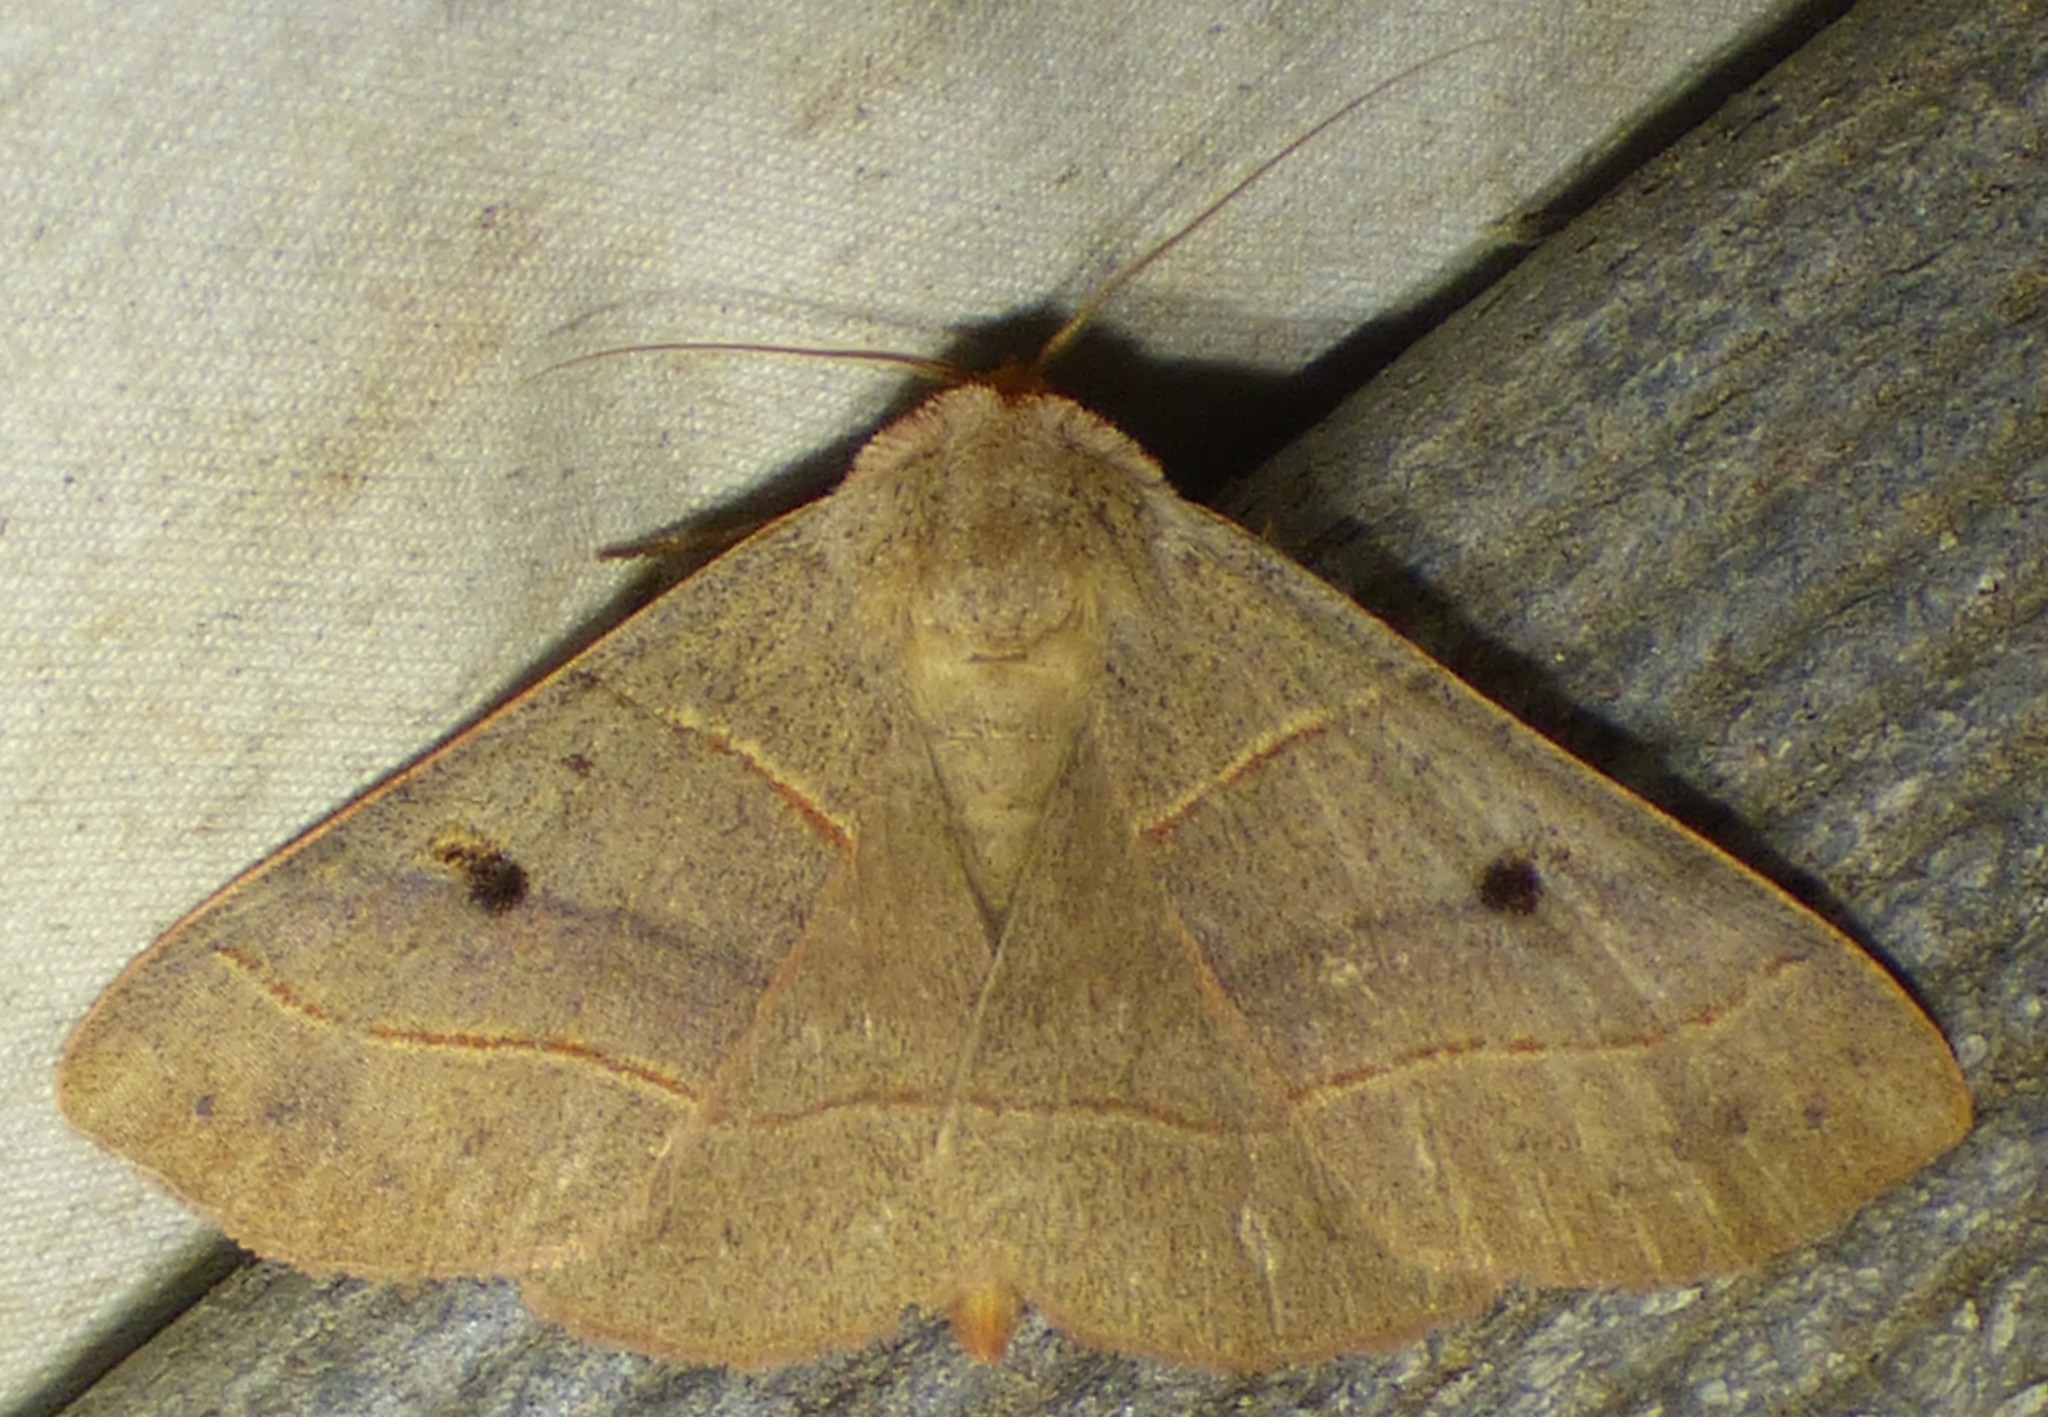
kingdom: Animalia
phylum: Arthropoda
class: Insecta
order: Lepidoptera
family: Erebidae
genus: Panopoda
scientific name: Panopoda rufimargo
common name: Red-lined panopoda moth
